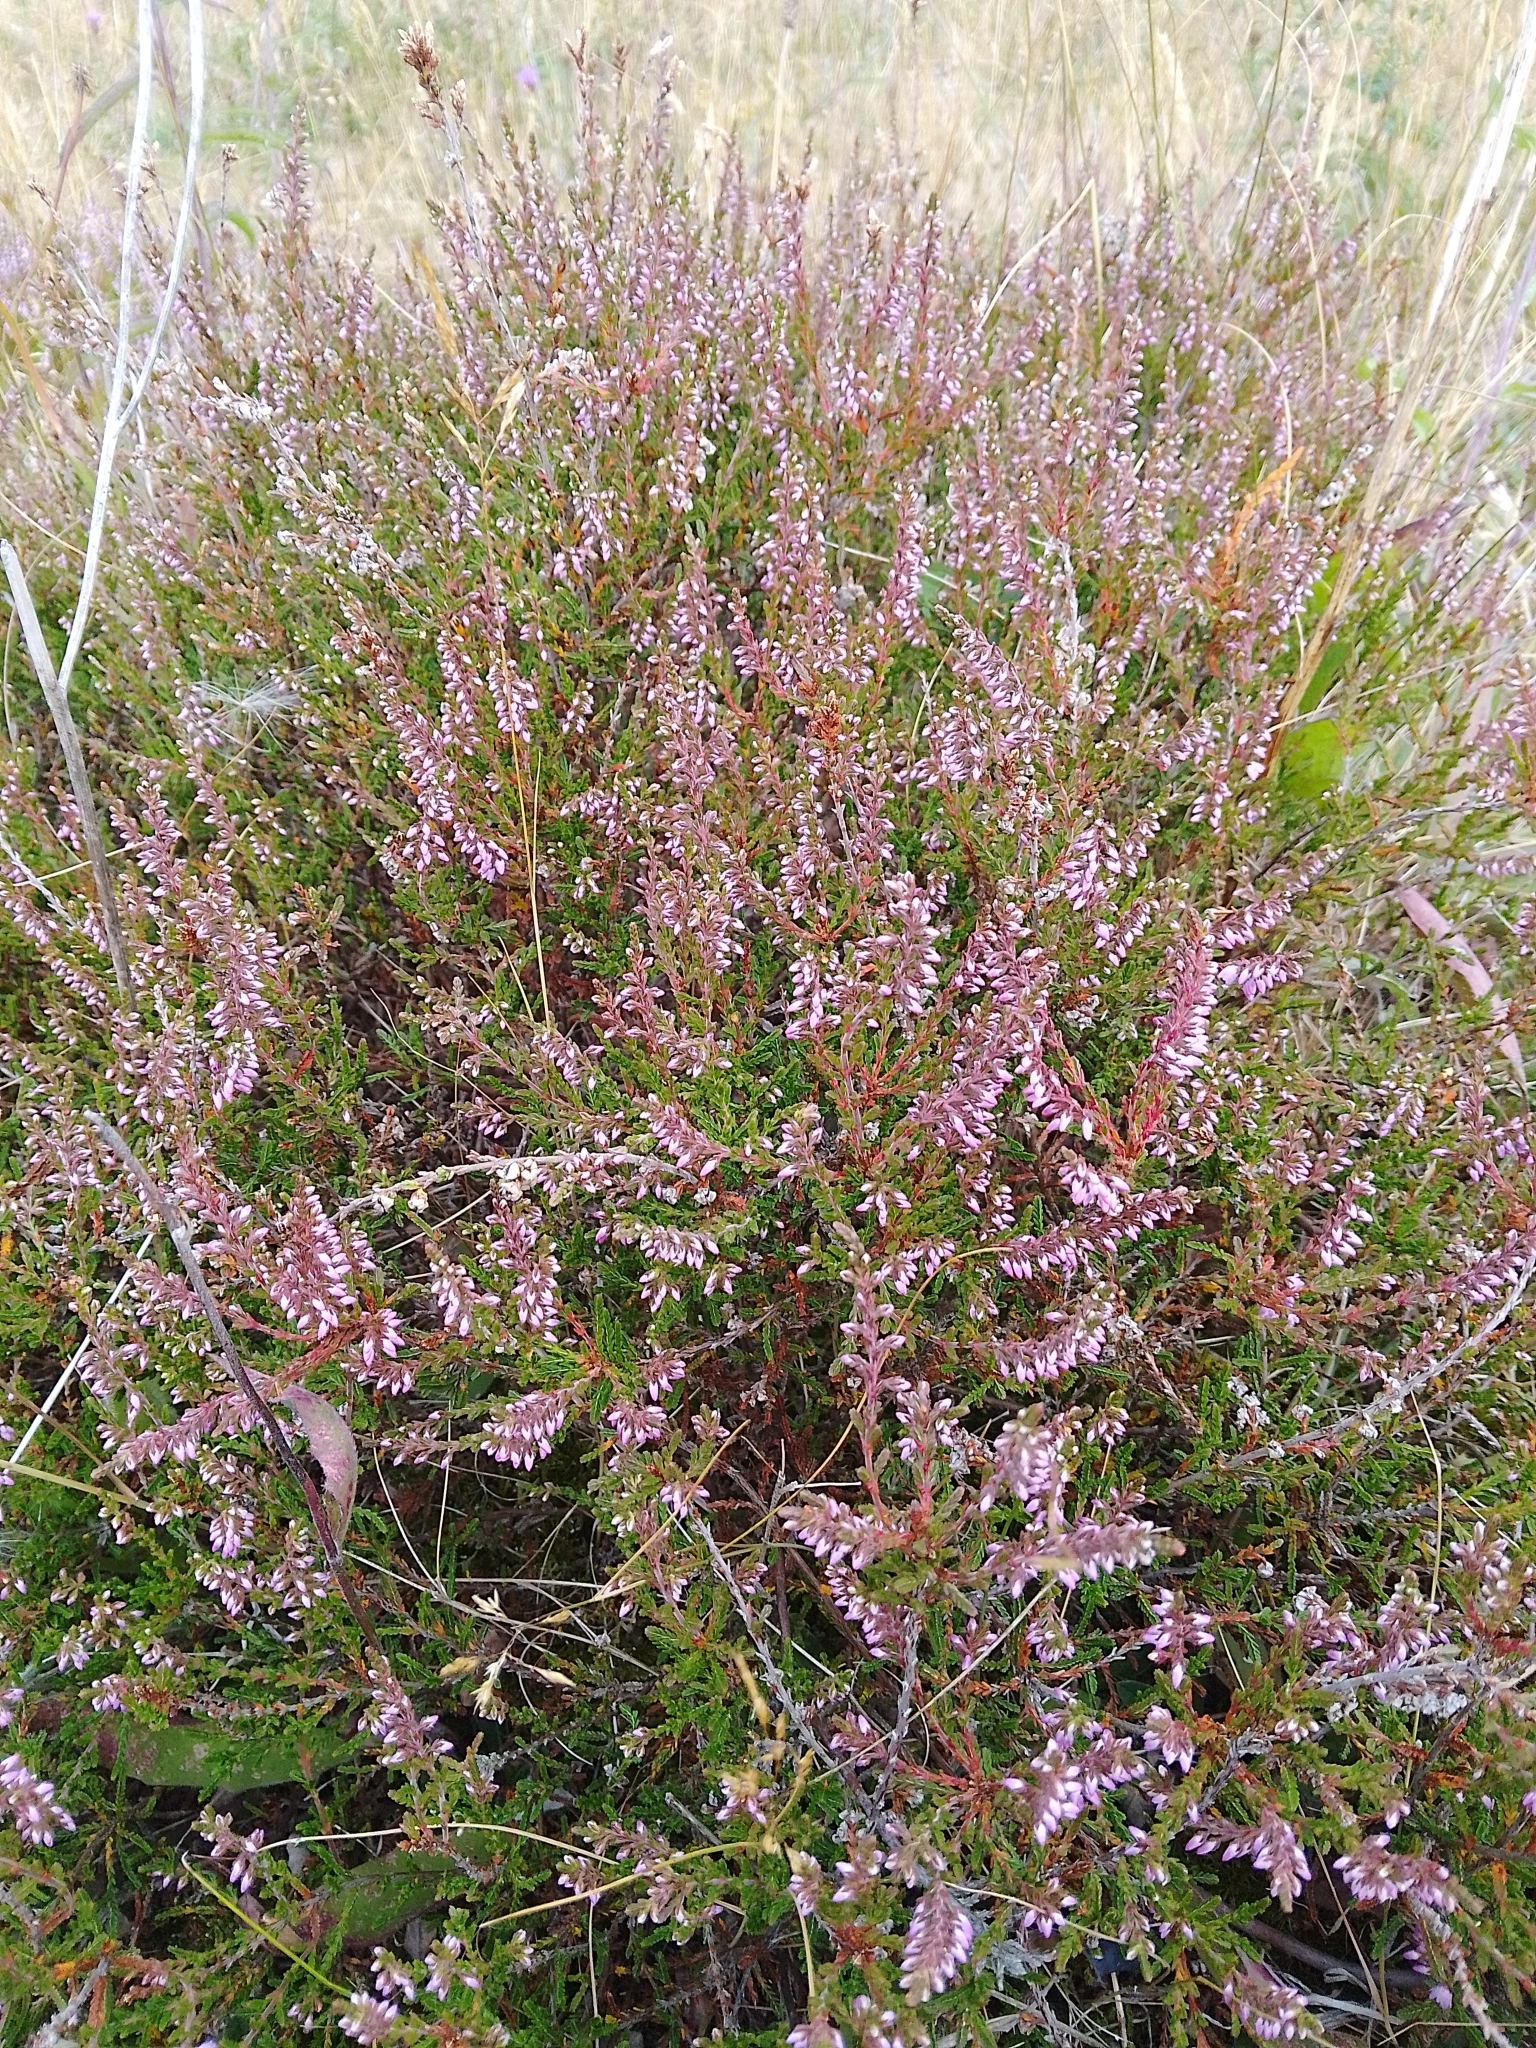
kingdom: Plantae
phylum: Tracheophyta
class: Magnoliopsida
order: Ericales
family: Ericaceae
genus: Calluna
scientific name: Calluna vulgaris
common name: Heather
